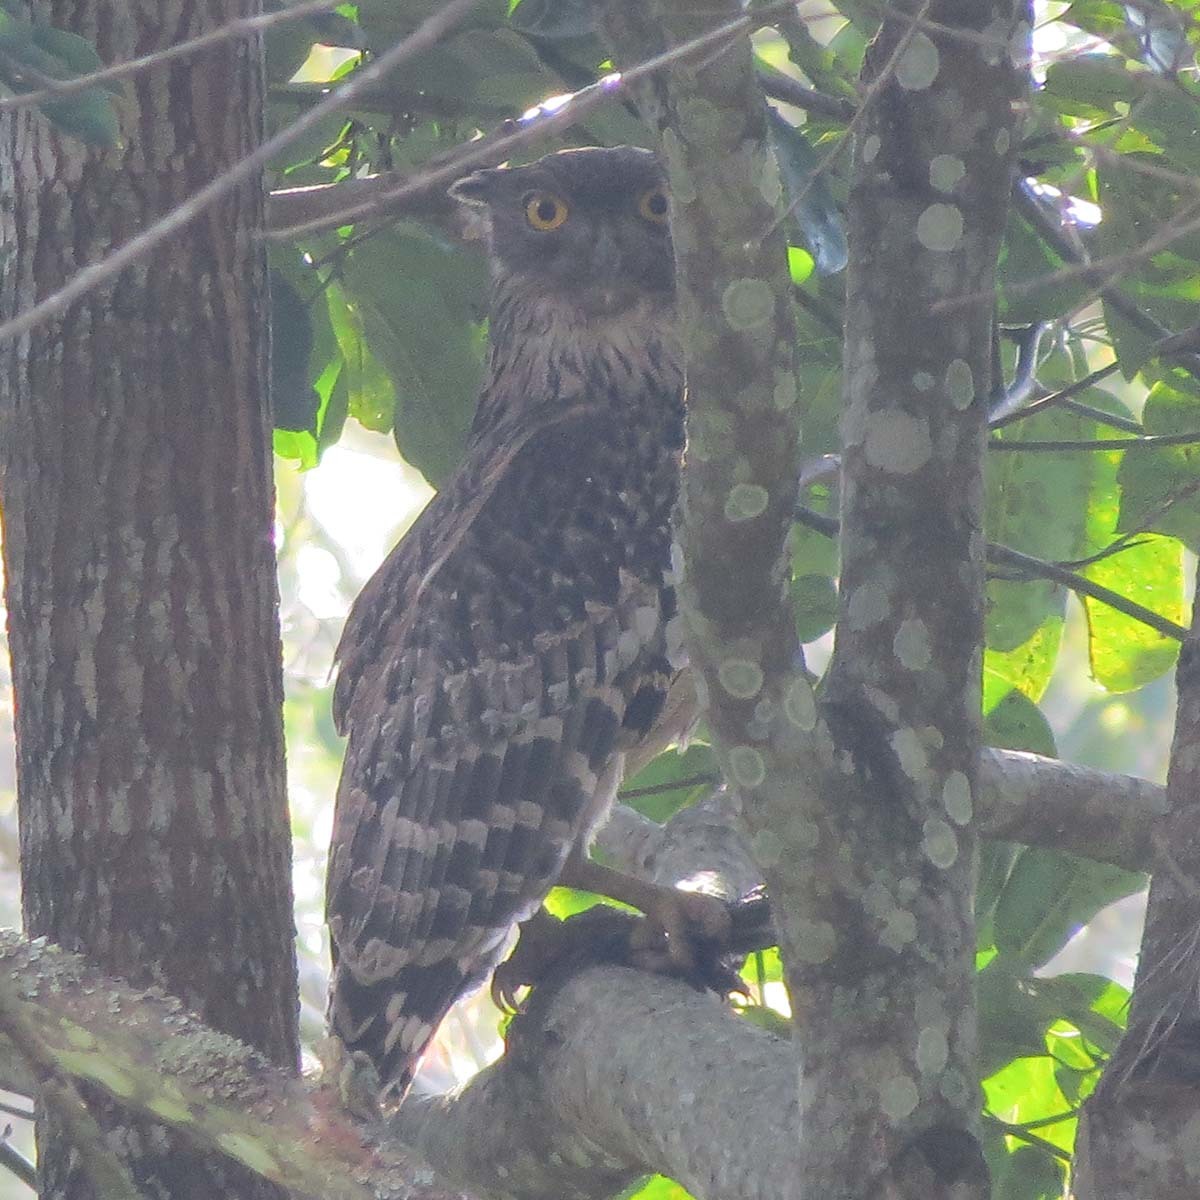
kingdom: Animalia
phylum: Chordata
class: Aves
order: Strigiformes
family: Strigidae
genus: Ketupa
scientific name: Ketupa zeylonensis
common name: Brown fish owl
